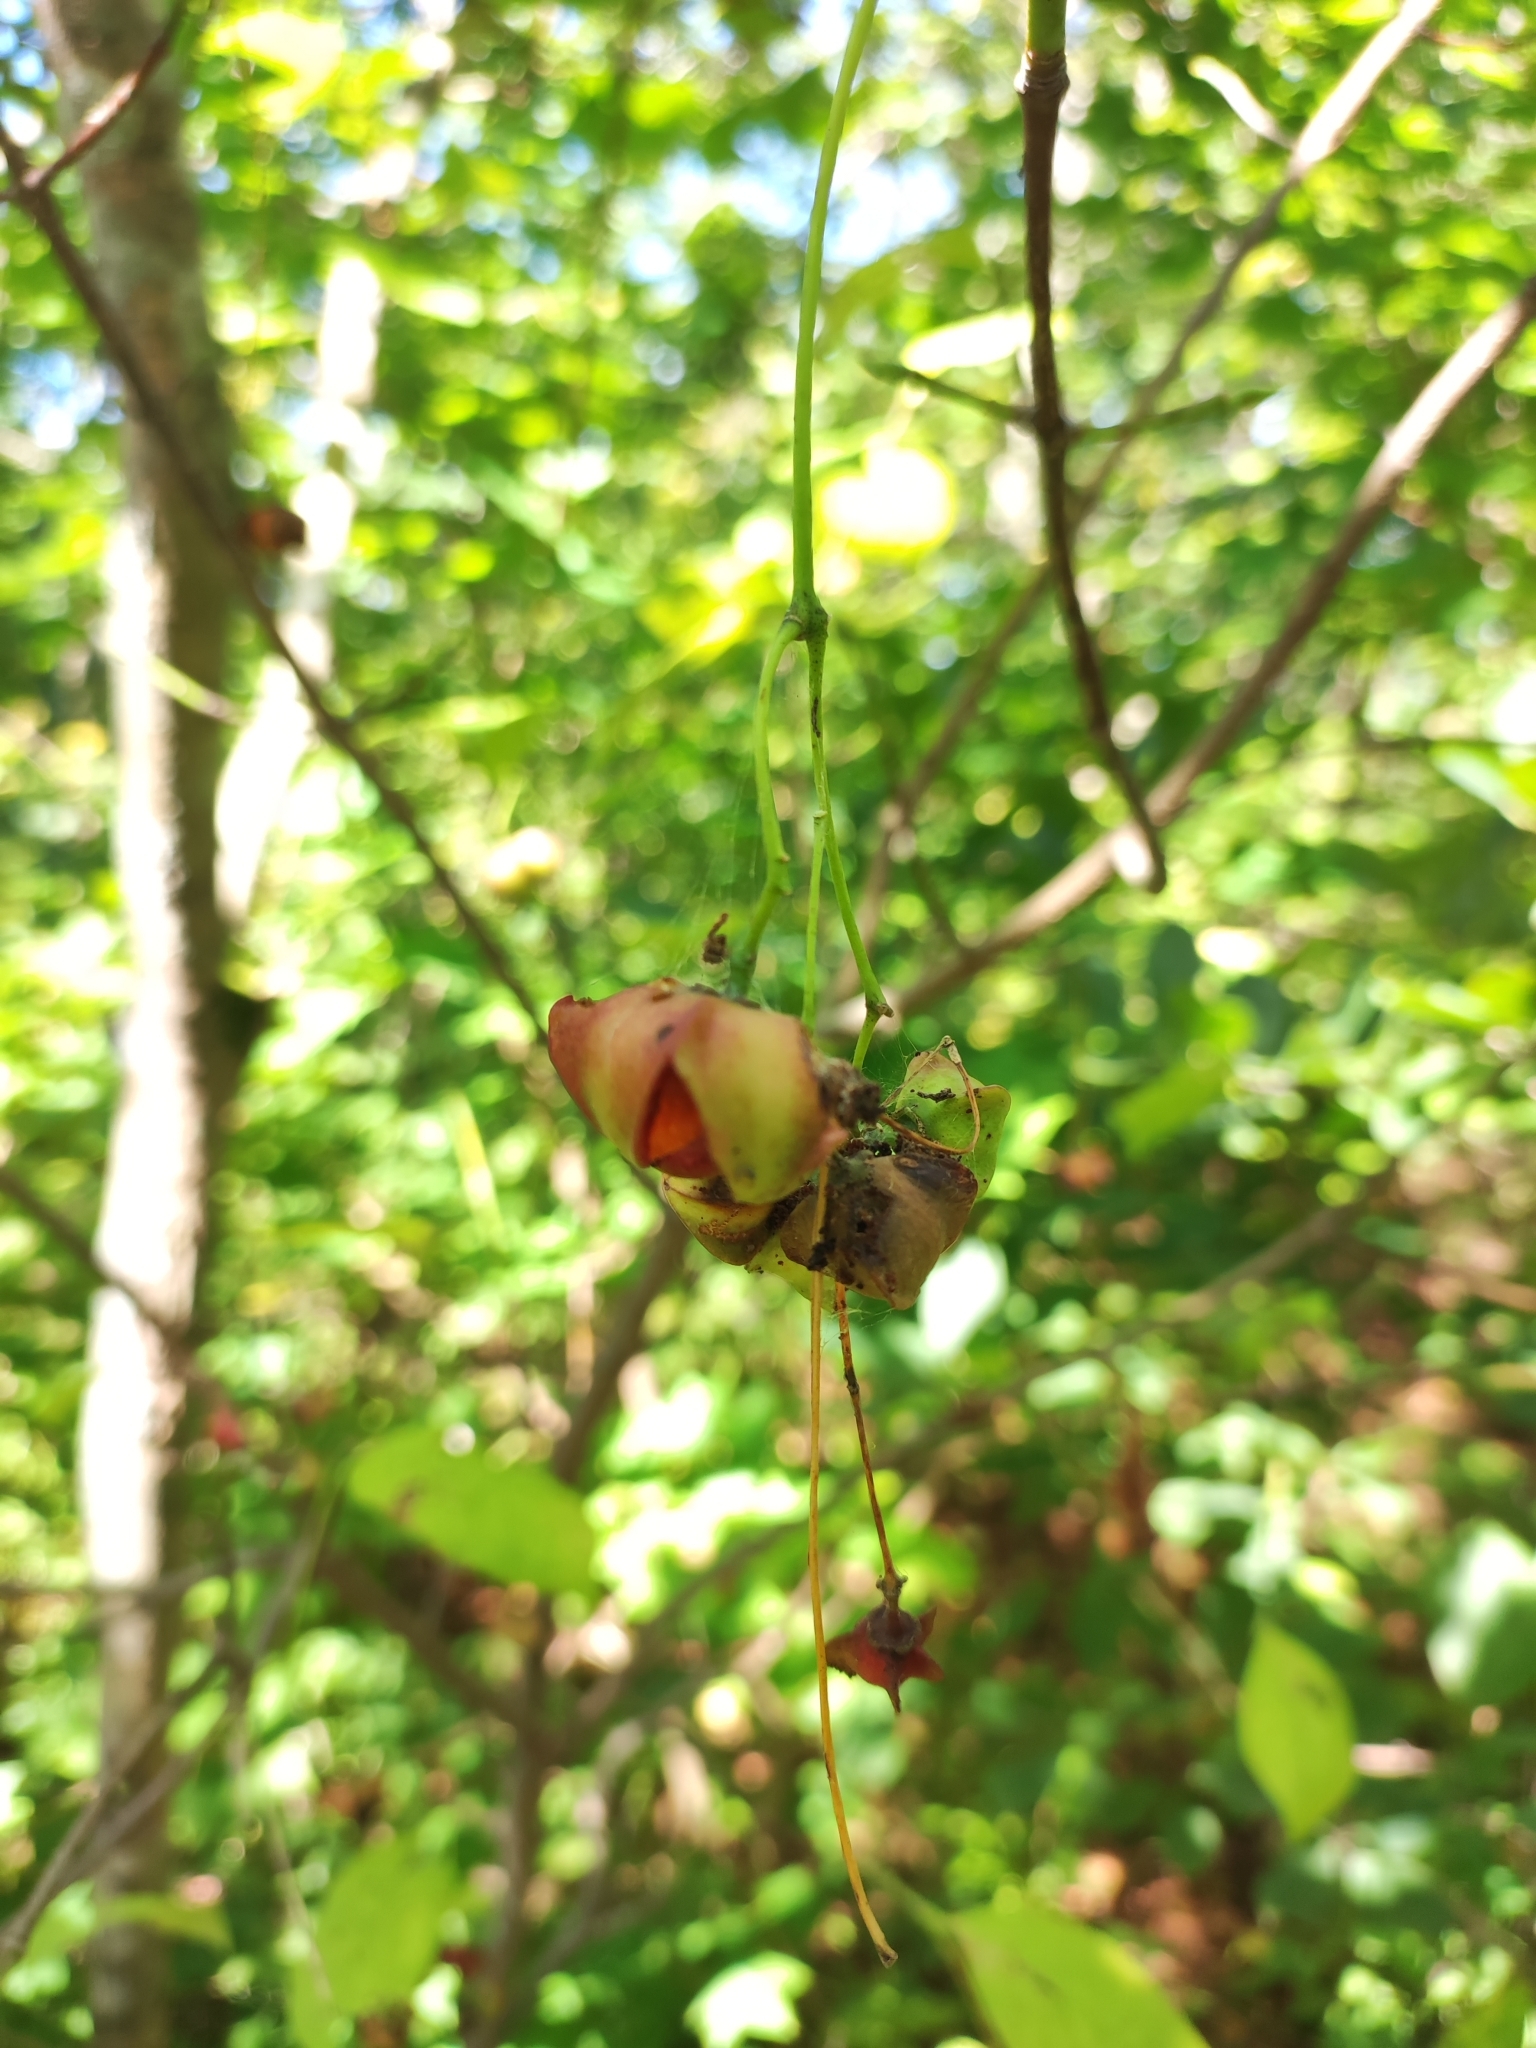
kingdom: Plantae
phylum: Tracheophyta
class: Magnoliopsida
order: Celastrales
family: Celastraceae
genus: Euonymus
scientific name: Euonymus sachalinensis
